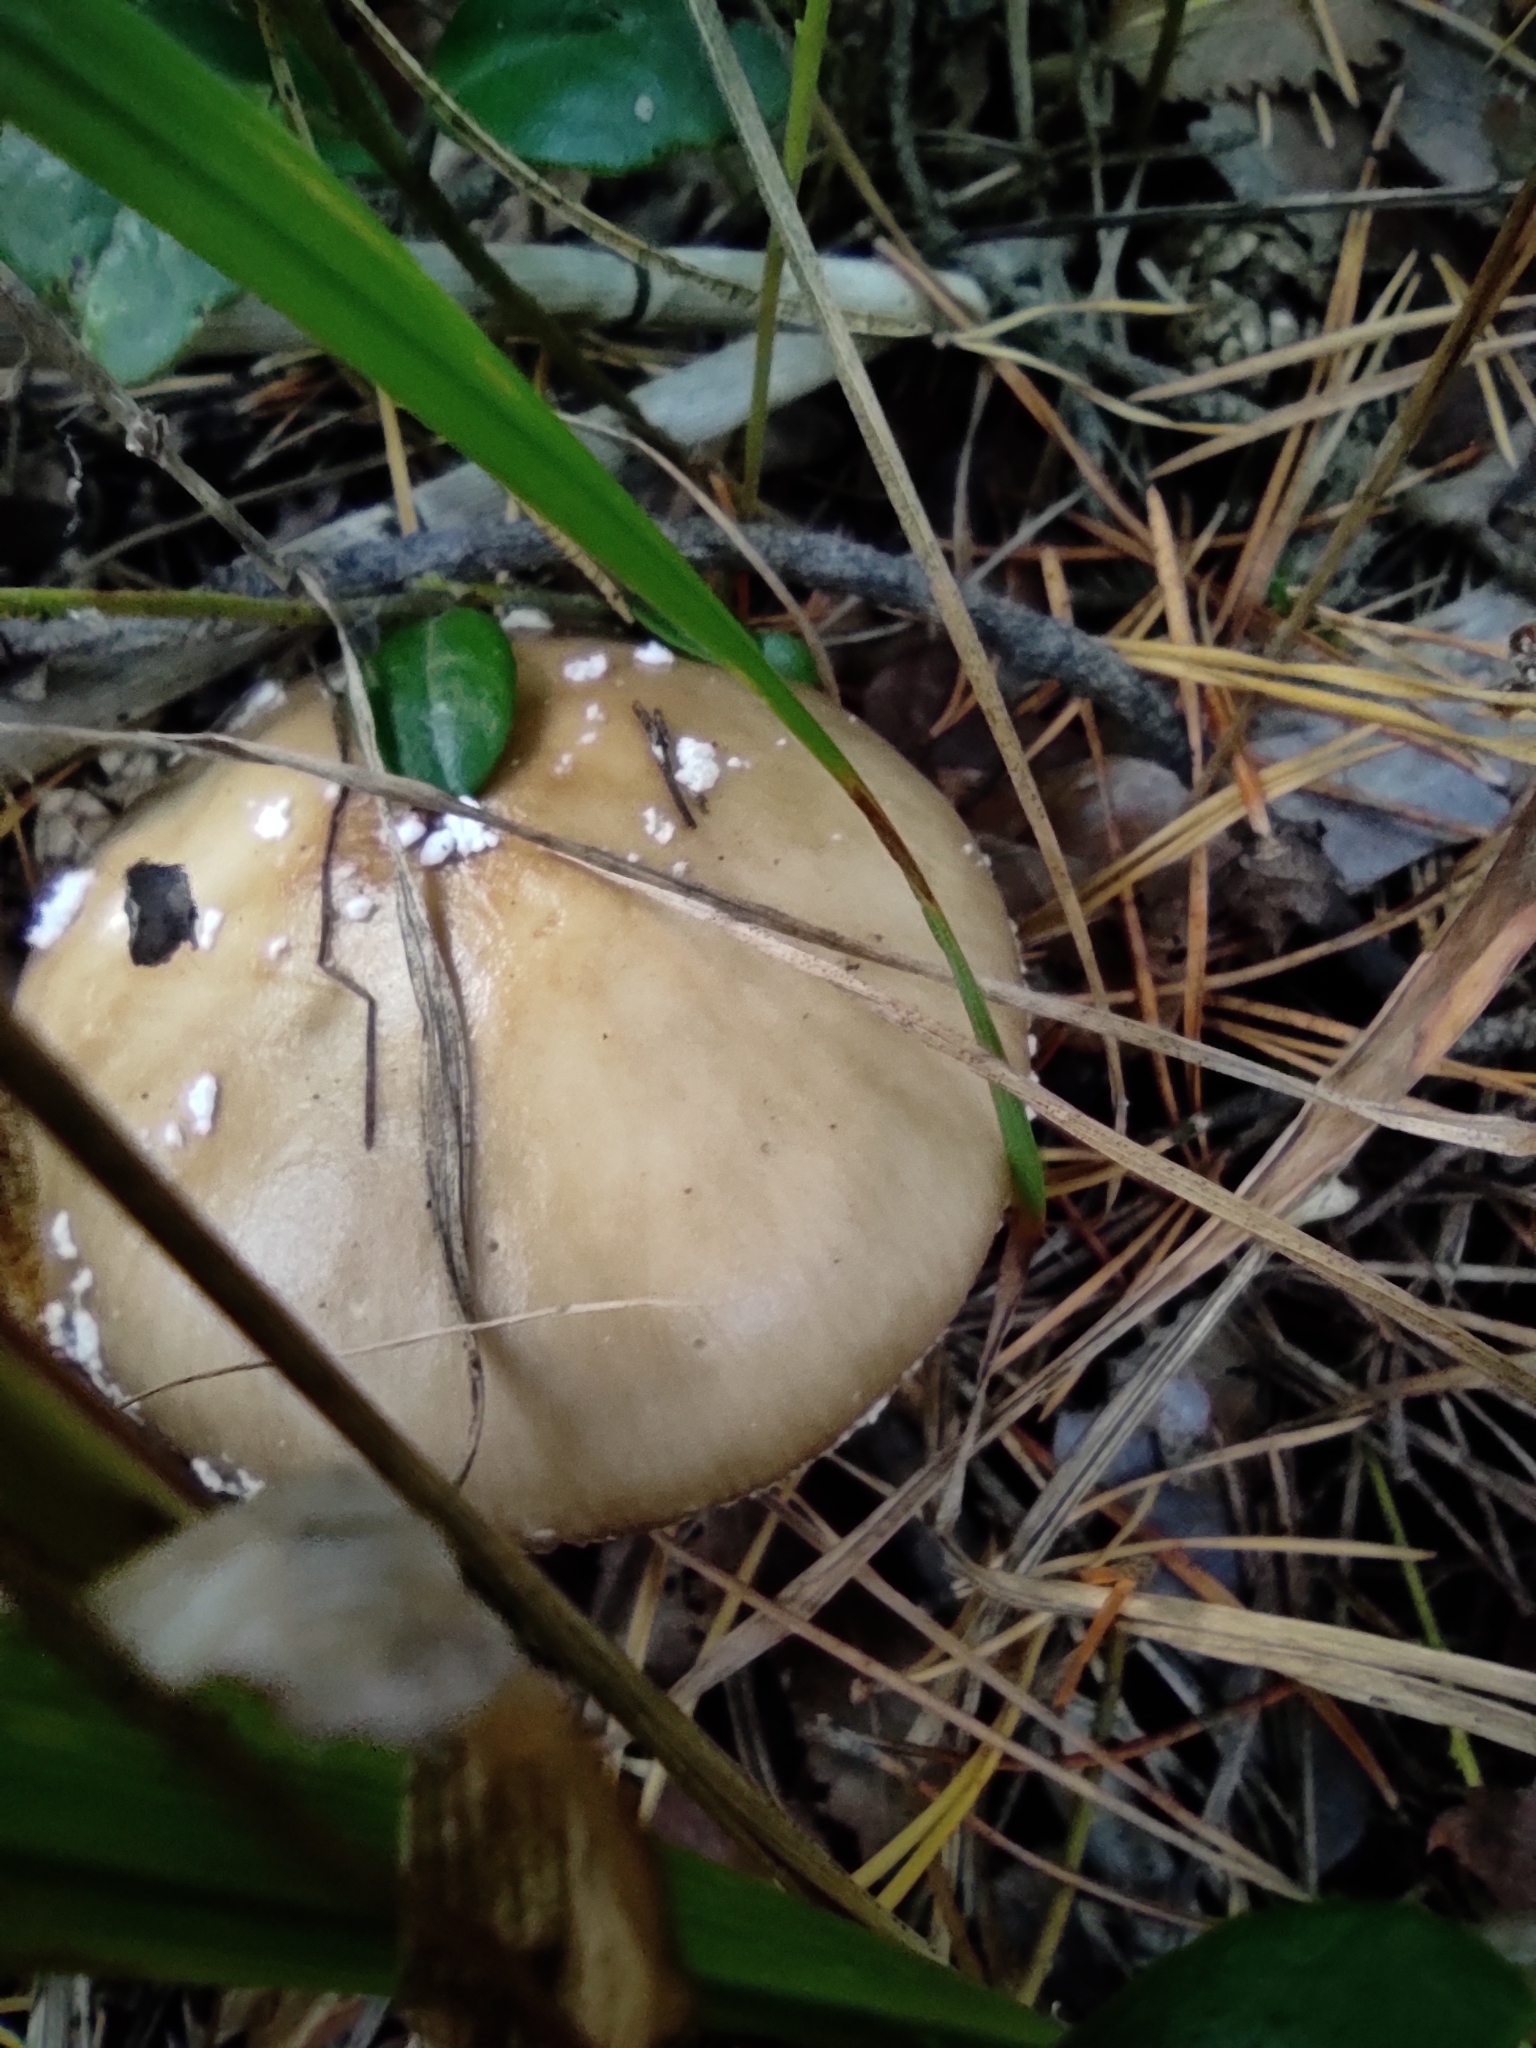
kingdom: Fungi
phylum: Basidiomycota
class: Agaricomycetes
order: Agaricales
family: Amanitaceae
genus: Amanita
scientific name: Amanita pantherina
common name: Panthercap
